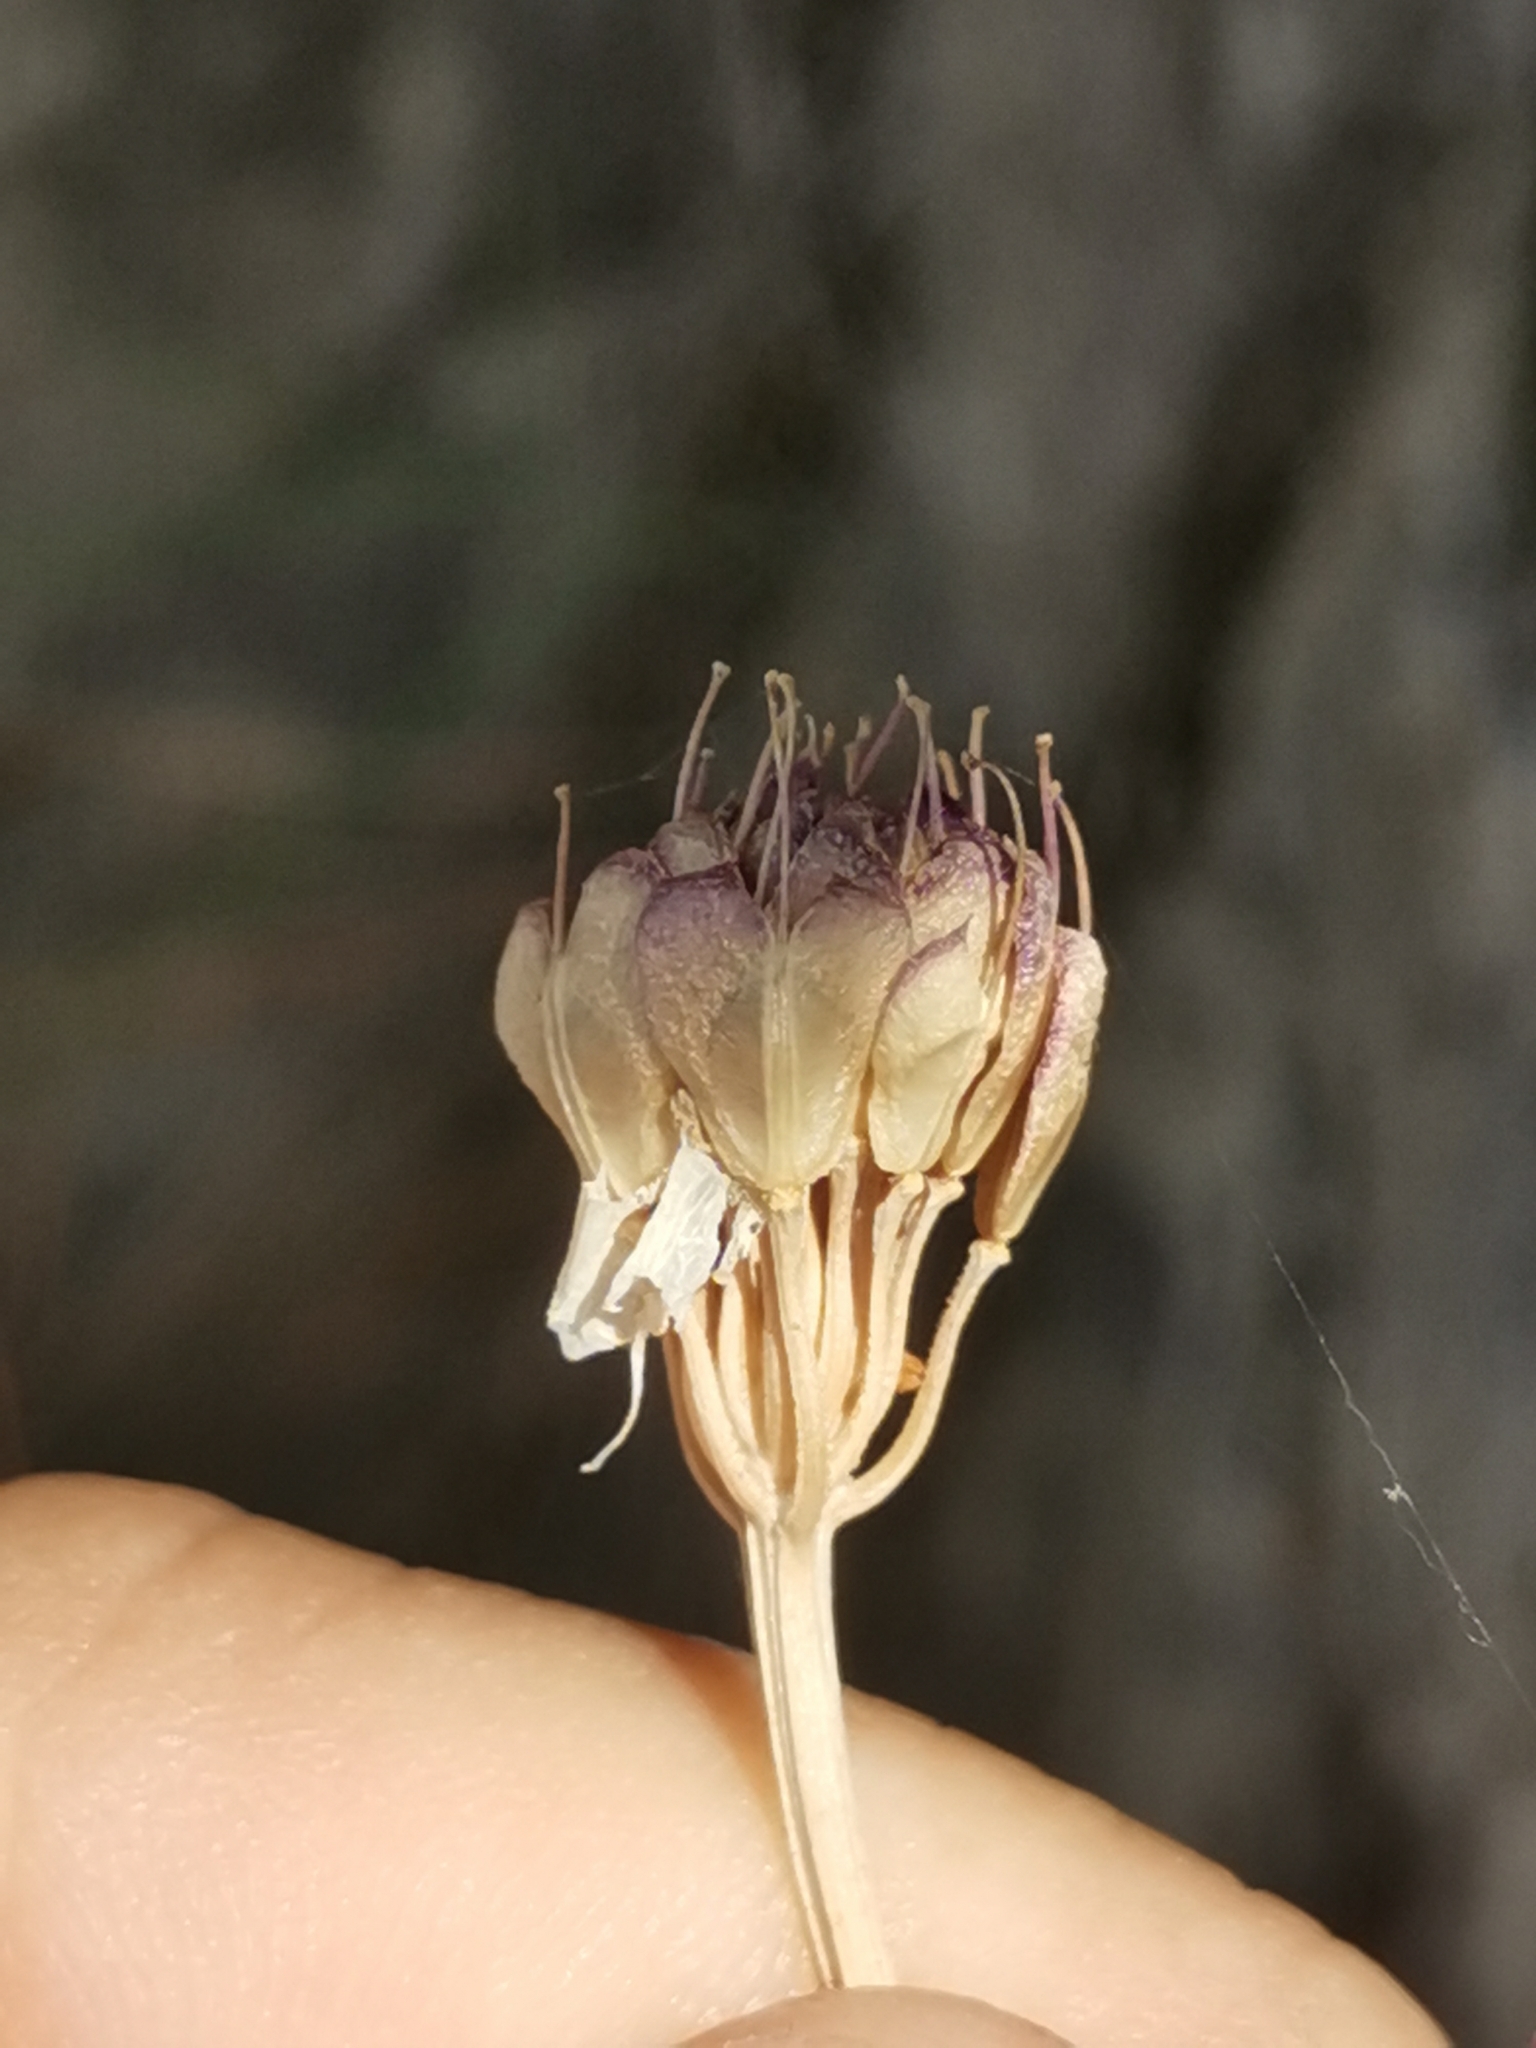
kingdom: Plantae
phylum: Tracheophyta
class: Magnoliopsida
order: Brassicales
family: Brassicaceae
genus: Iberis
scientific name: Iberis umbellata
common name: Globe candytuft
